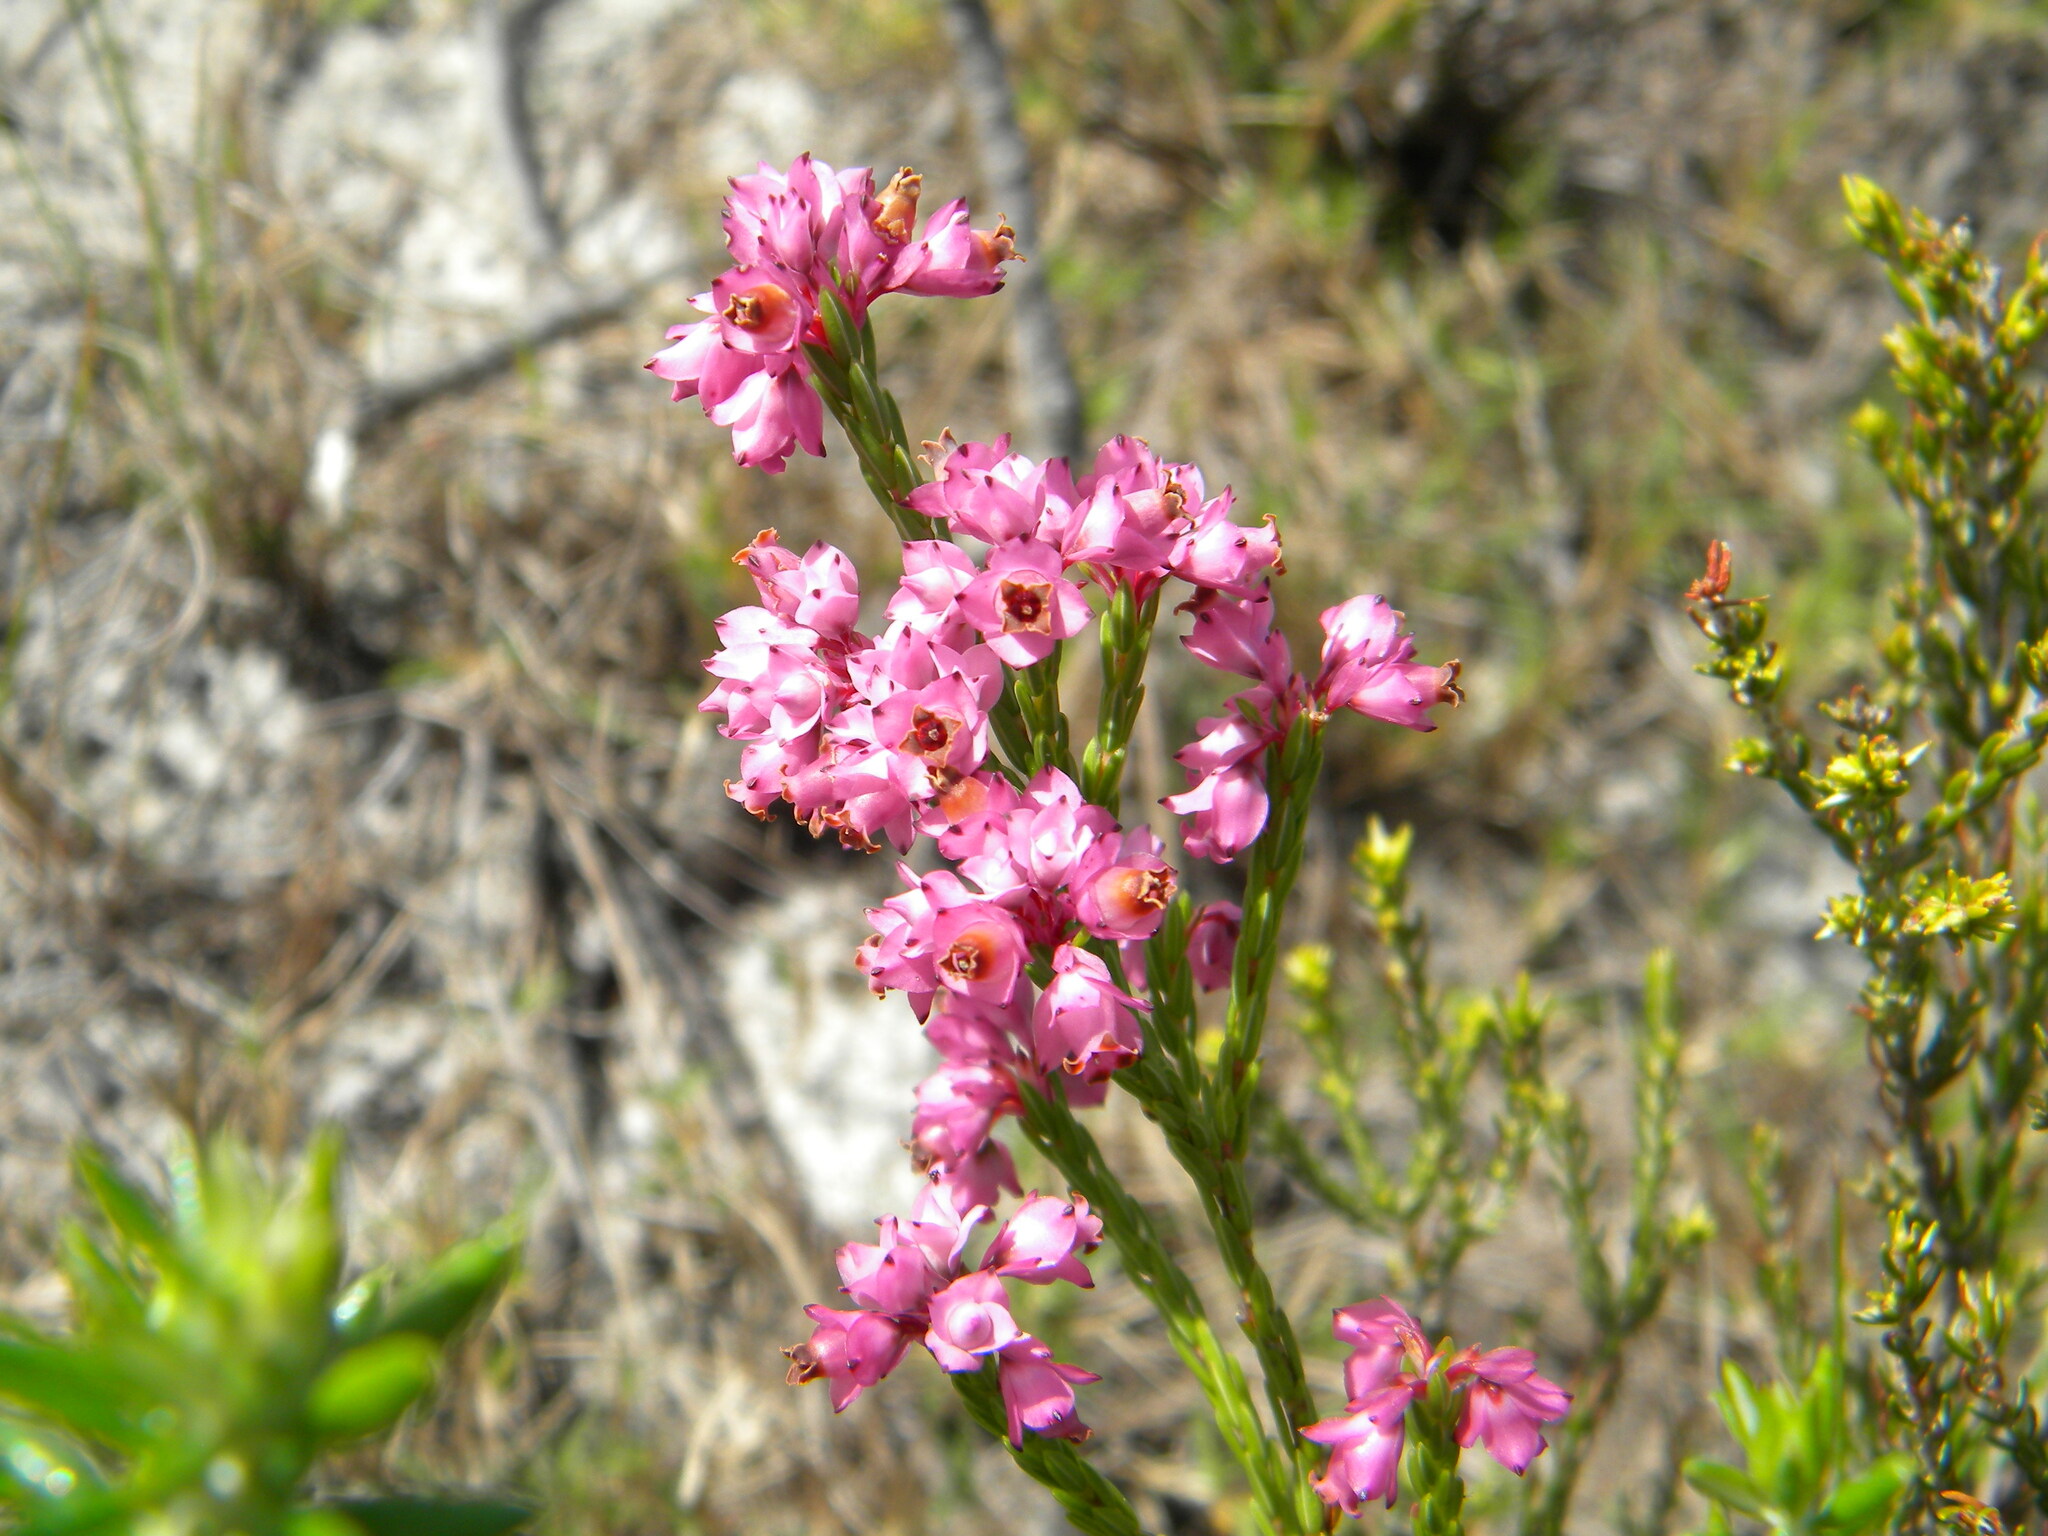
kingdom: Plantae
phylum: Tracheophyta
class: Magnoliopsida
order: Ericales
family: Ericaceae
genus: Erica
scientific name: Erica corifolia
